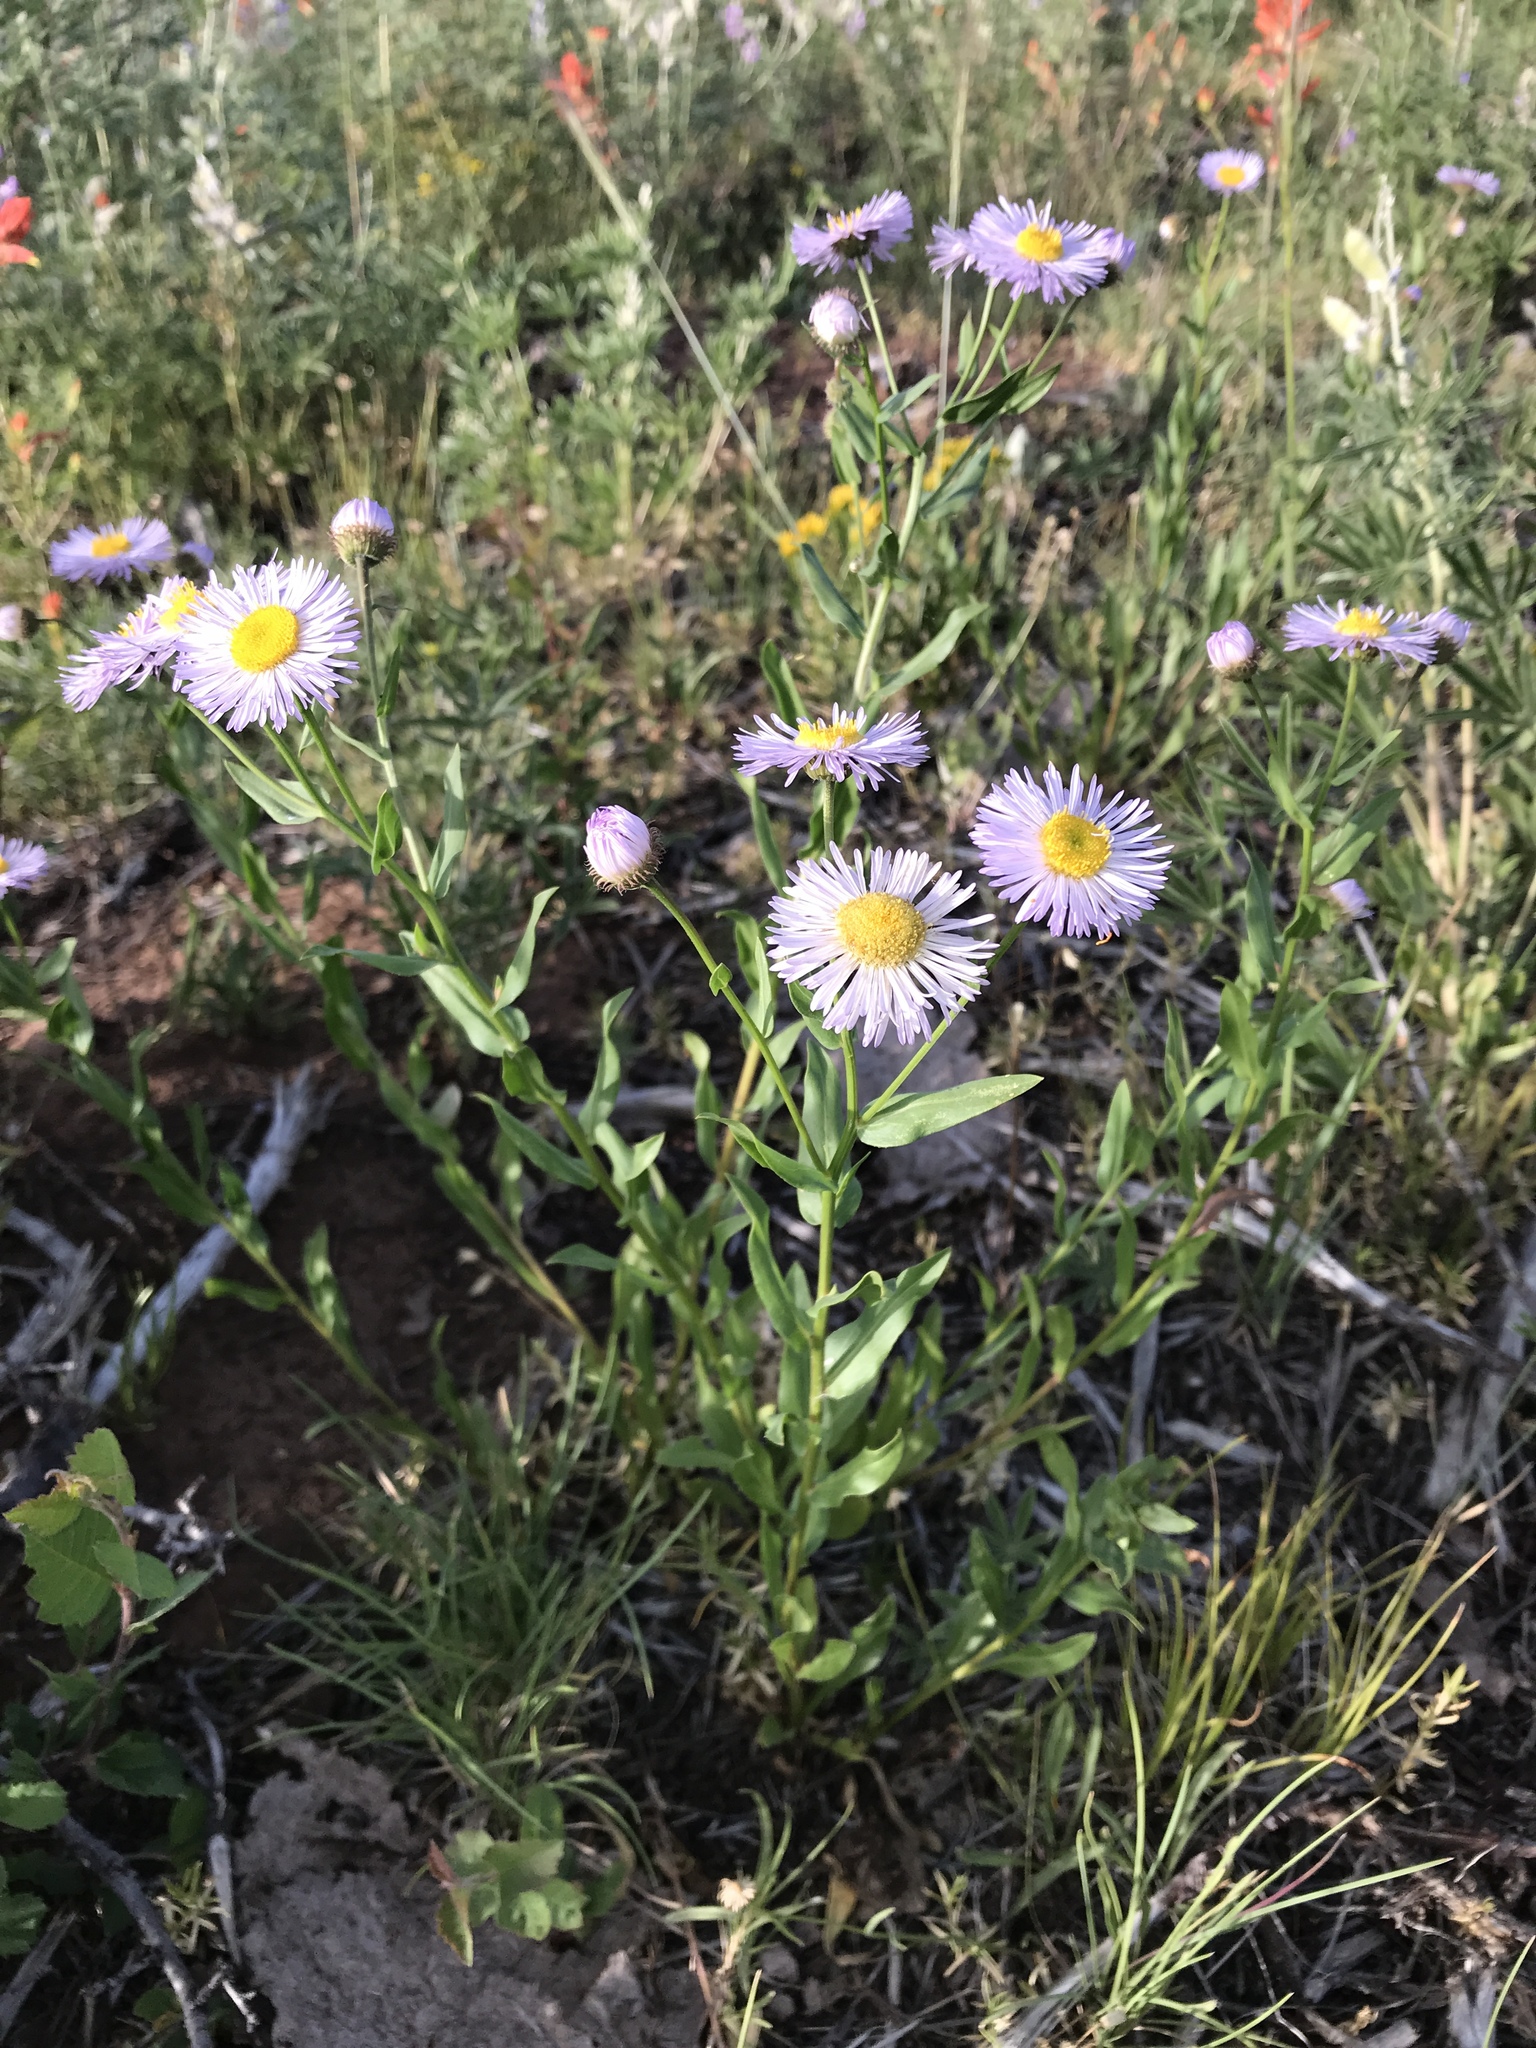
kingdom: Plantae
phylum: Tracheophyta
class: Magnoliopsida
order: Asterales
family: Asteraceae
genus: Erigeron
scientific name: Erigeron speciosus
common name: Aspen fleabane
